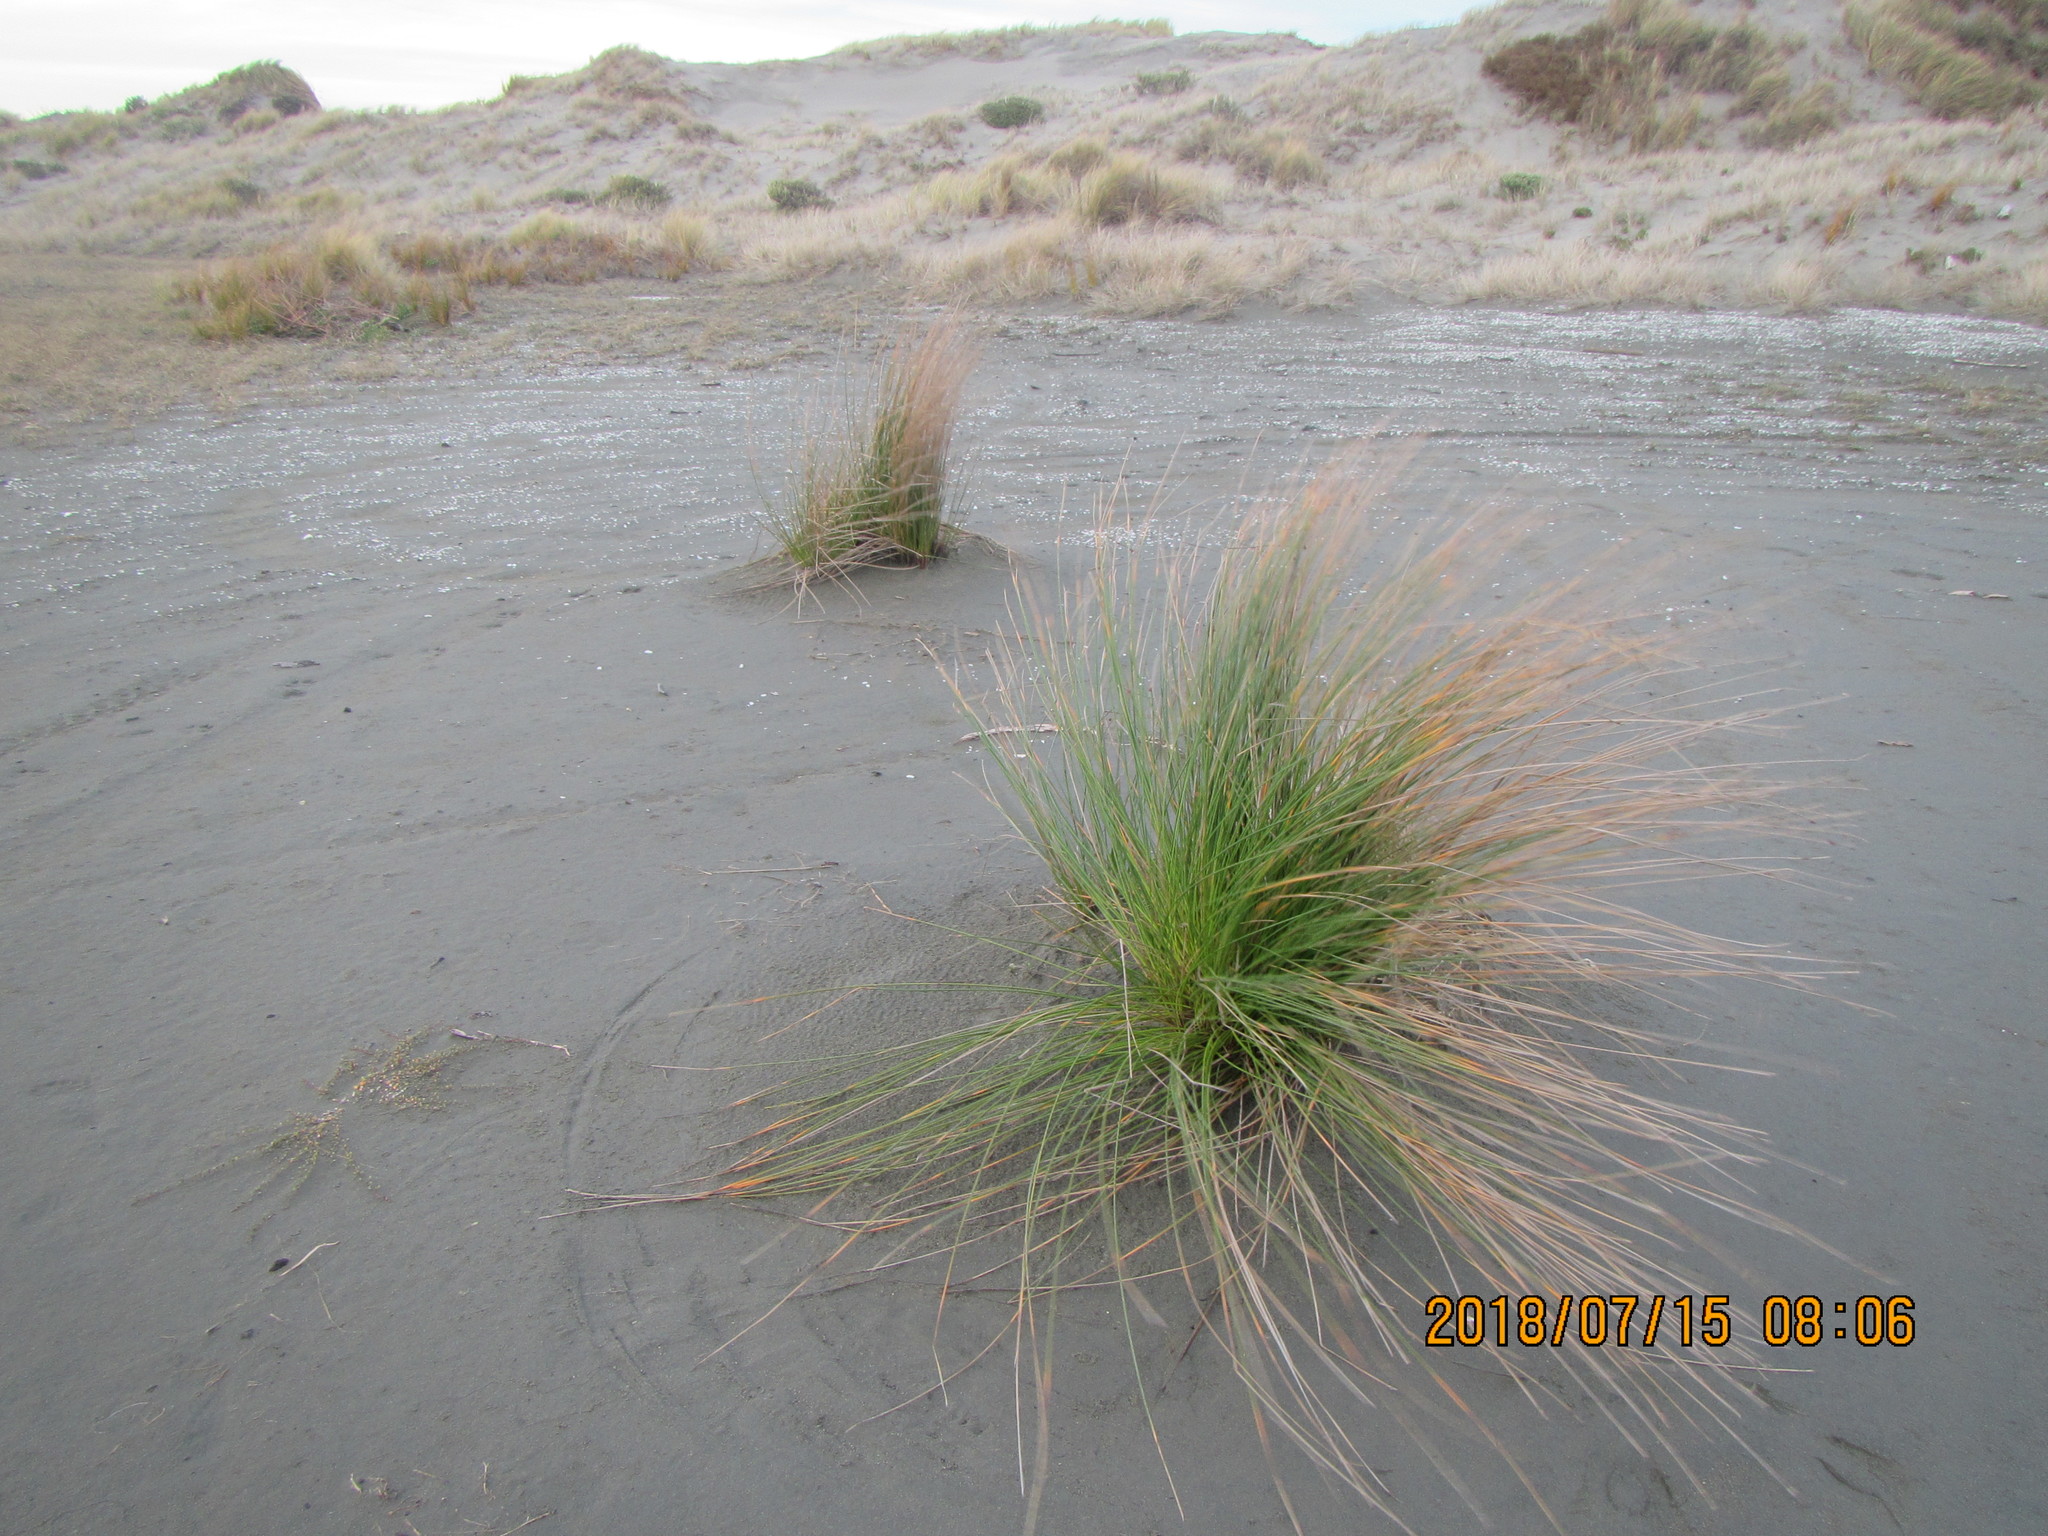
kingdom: Plantae
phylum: Tracheophyta
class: Liliopsida
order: Poales
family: Cyperaceae
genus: Ficinia
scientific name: Ficinia nodosa
